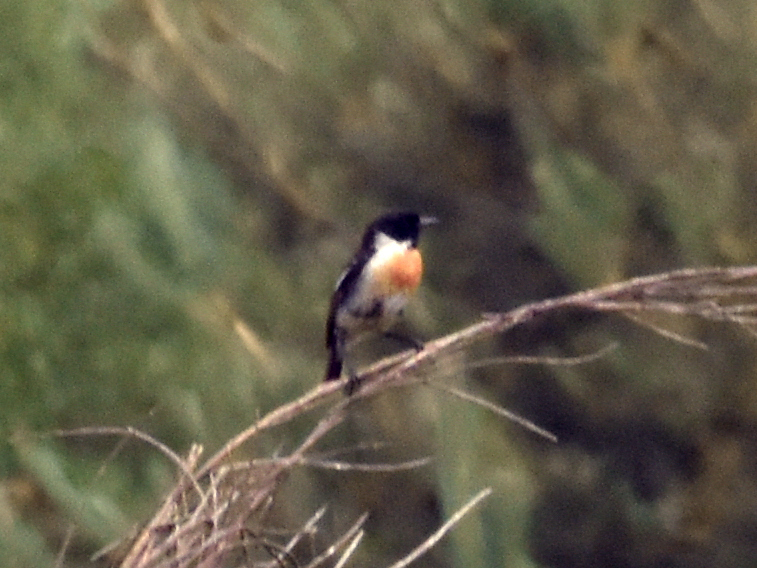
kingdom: Animalia
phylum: Chordata
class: Aves
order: Passeriformes
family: Muscicapidae
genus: Saxicola
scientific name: Saxicola rubicola
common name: European stonechat
